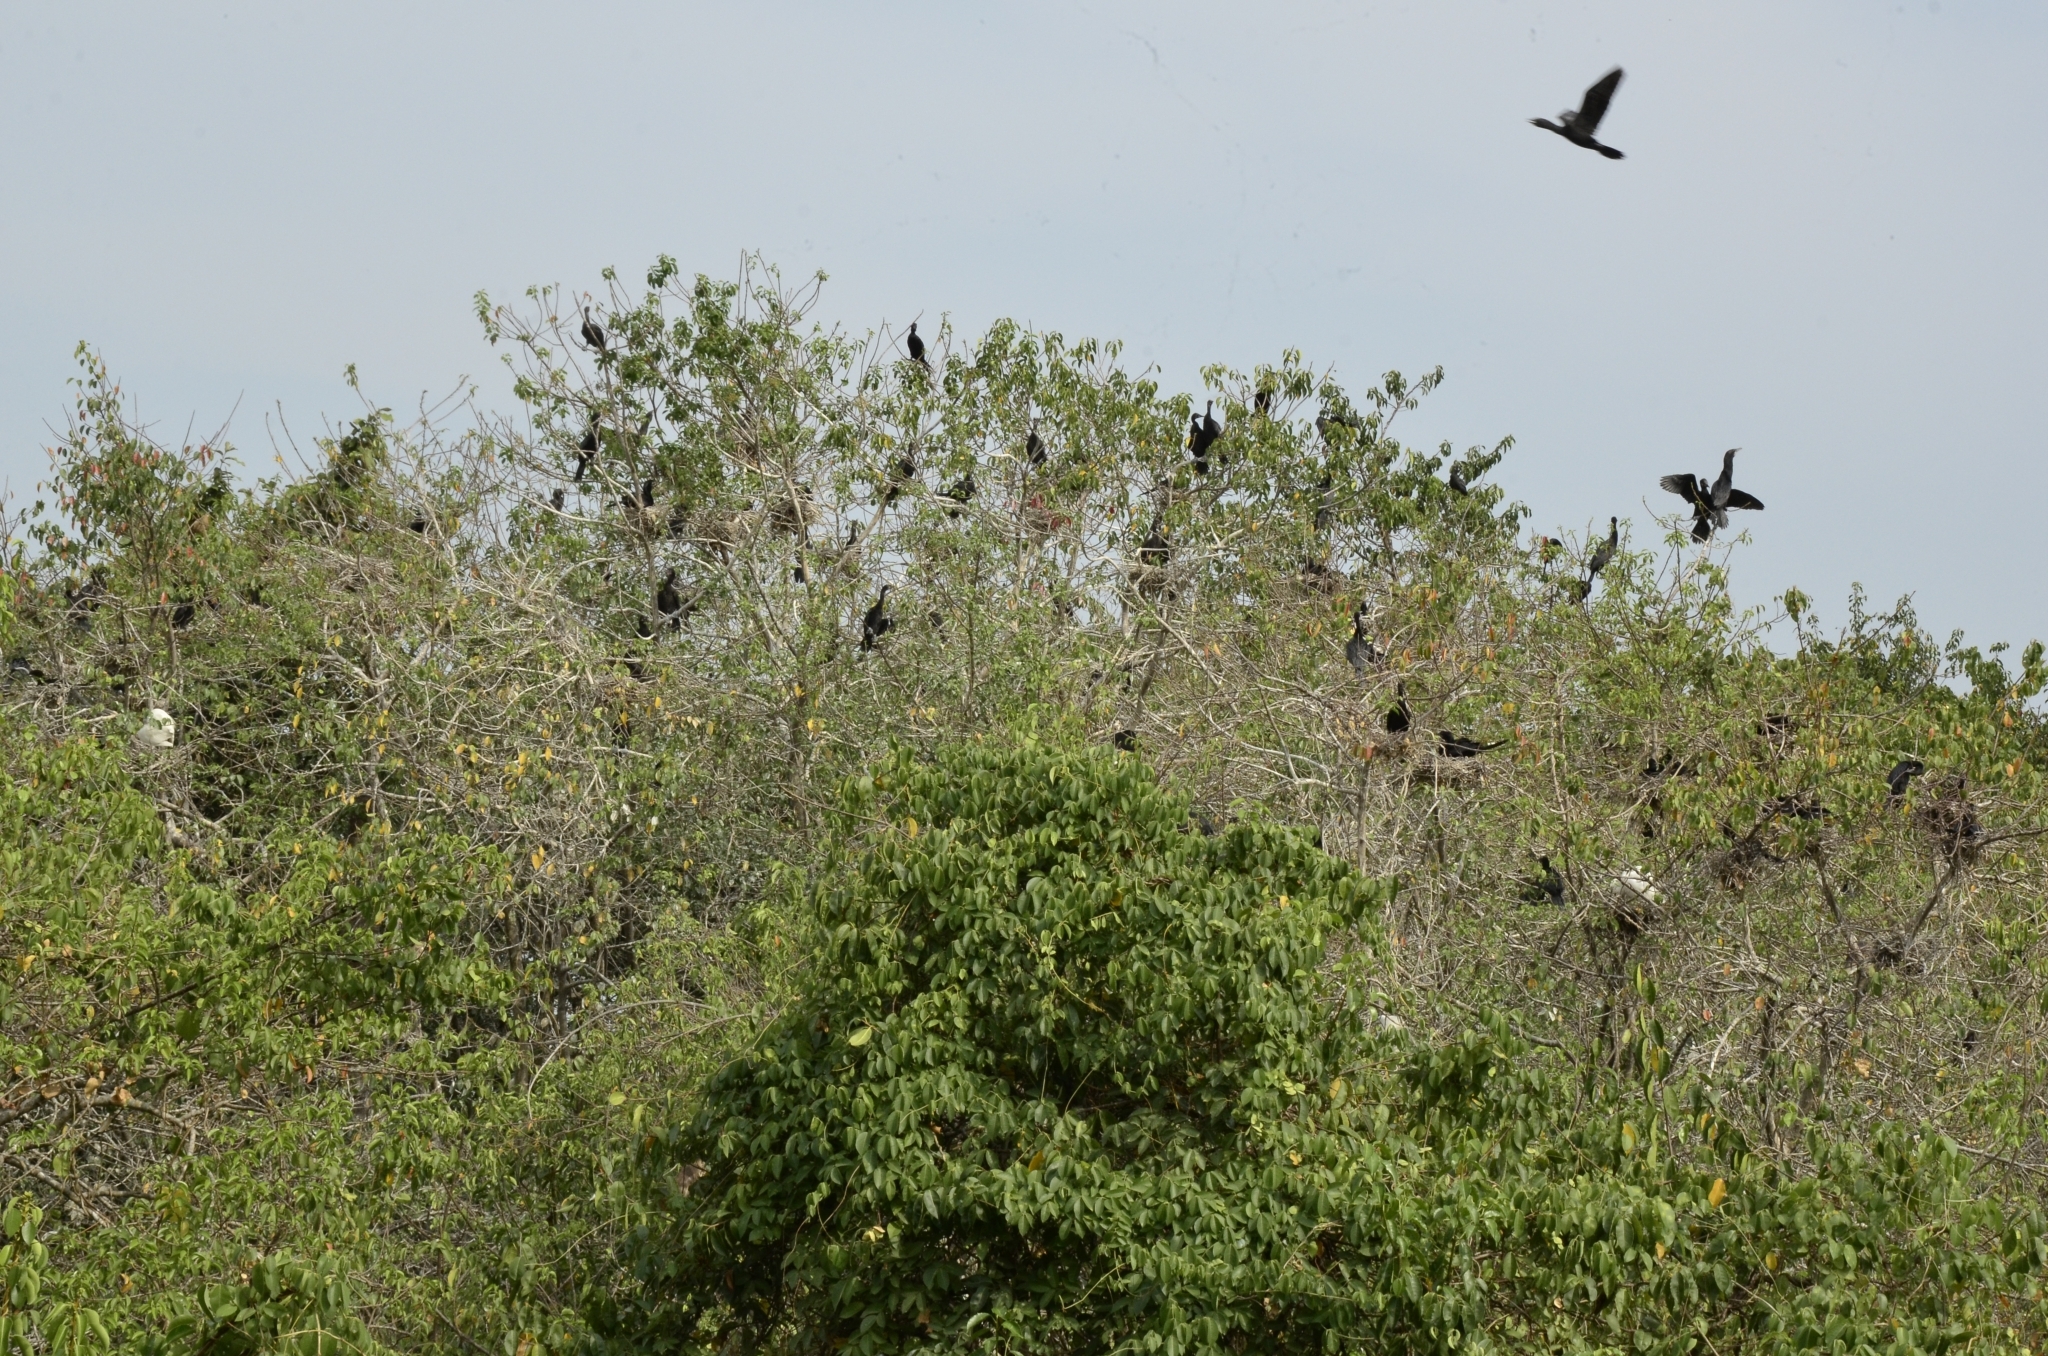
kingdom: Animalia
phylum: Chordata
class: Aves
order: Suliformes
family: Phalacrocoracidae
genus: Microcarbo
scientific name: Microcarbo niger
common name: Little cormorant
